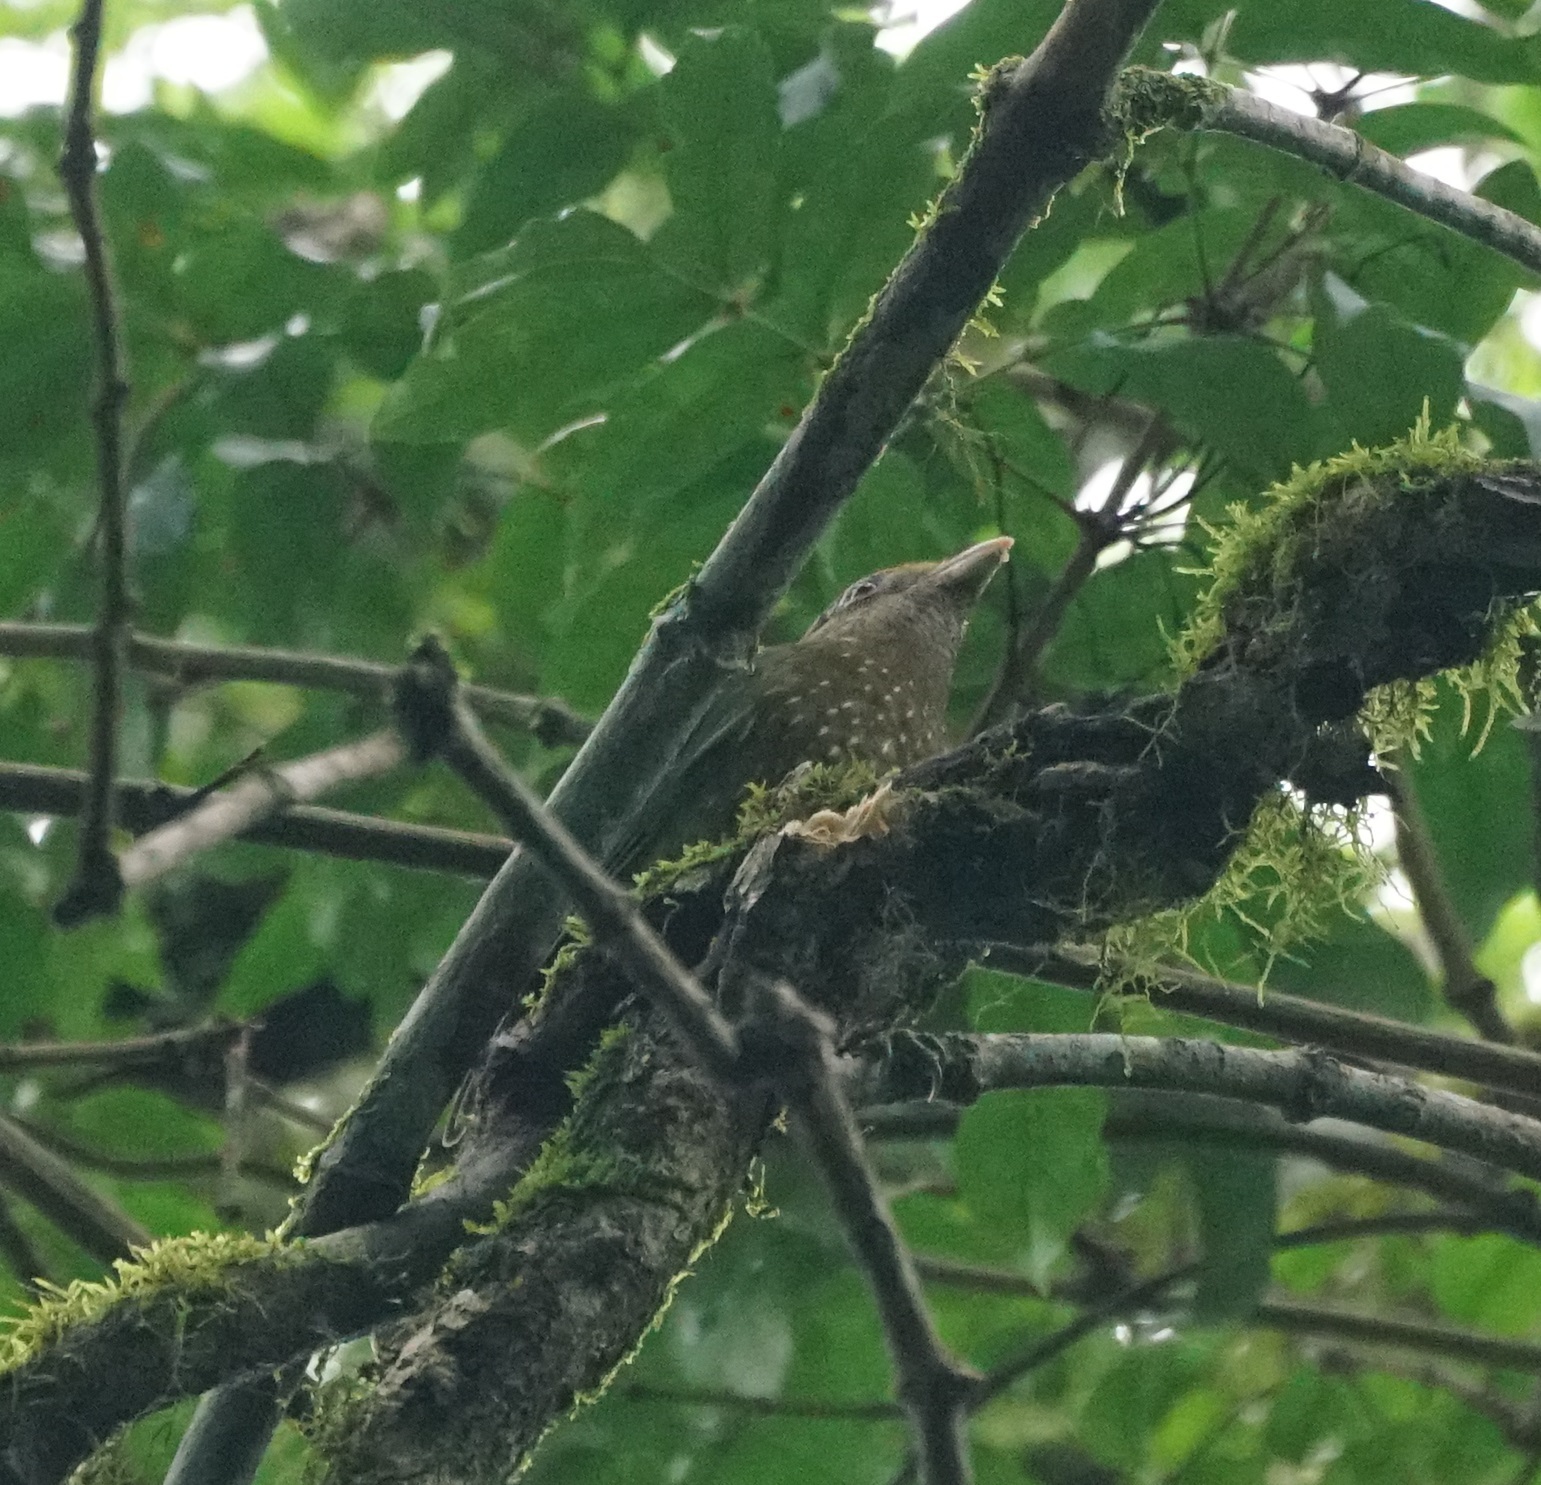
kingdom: Animalia
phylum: Chordata
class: Aves
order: Passeriformes
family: Ptilonorhynchidae
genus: Ailuroedus
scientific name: Ailuroedus crassirostris
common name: Green catbird
